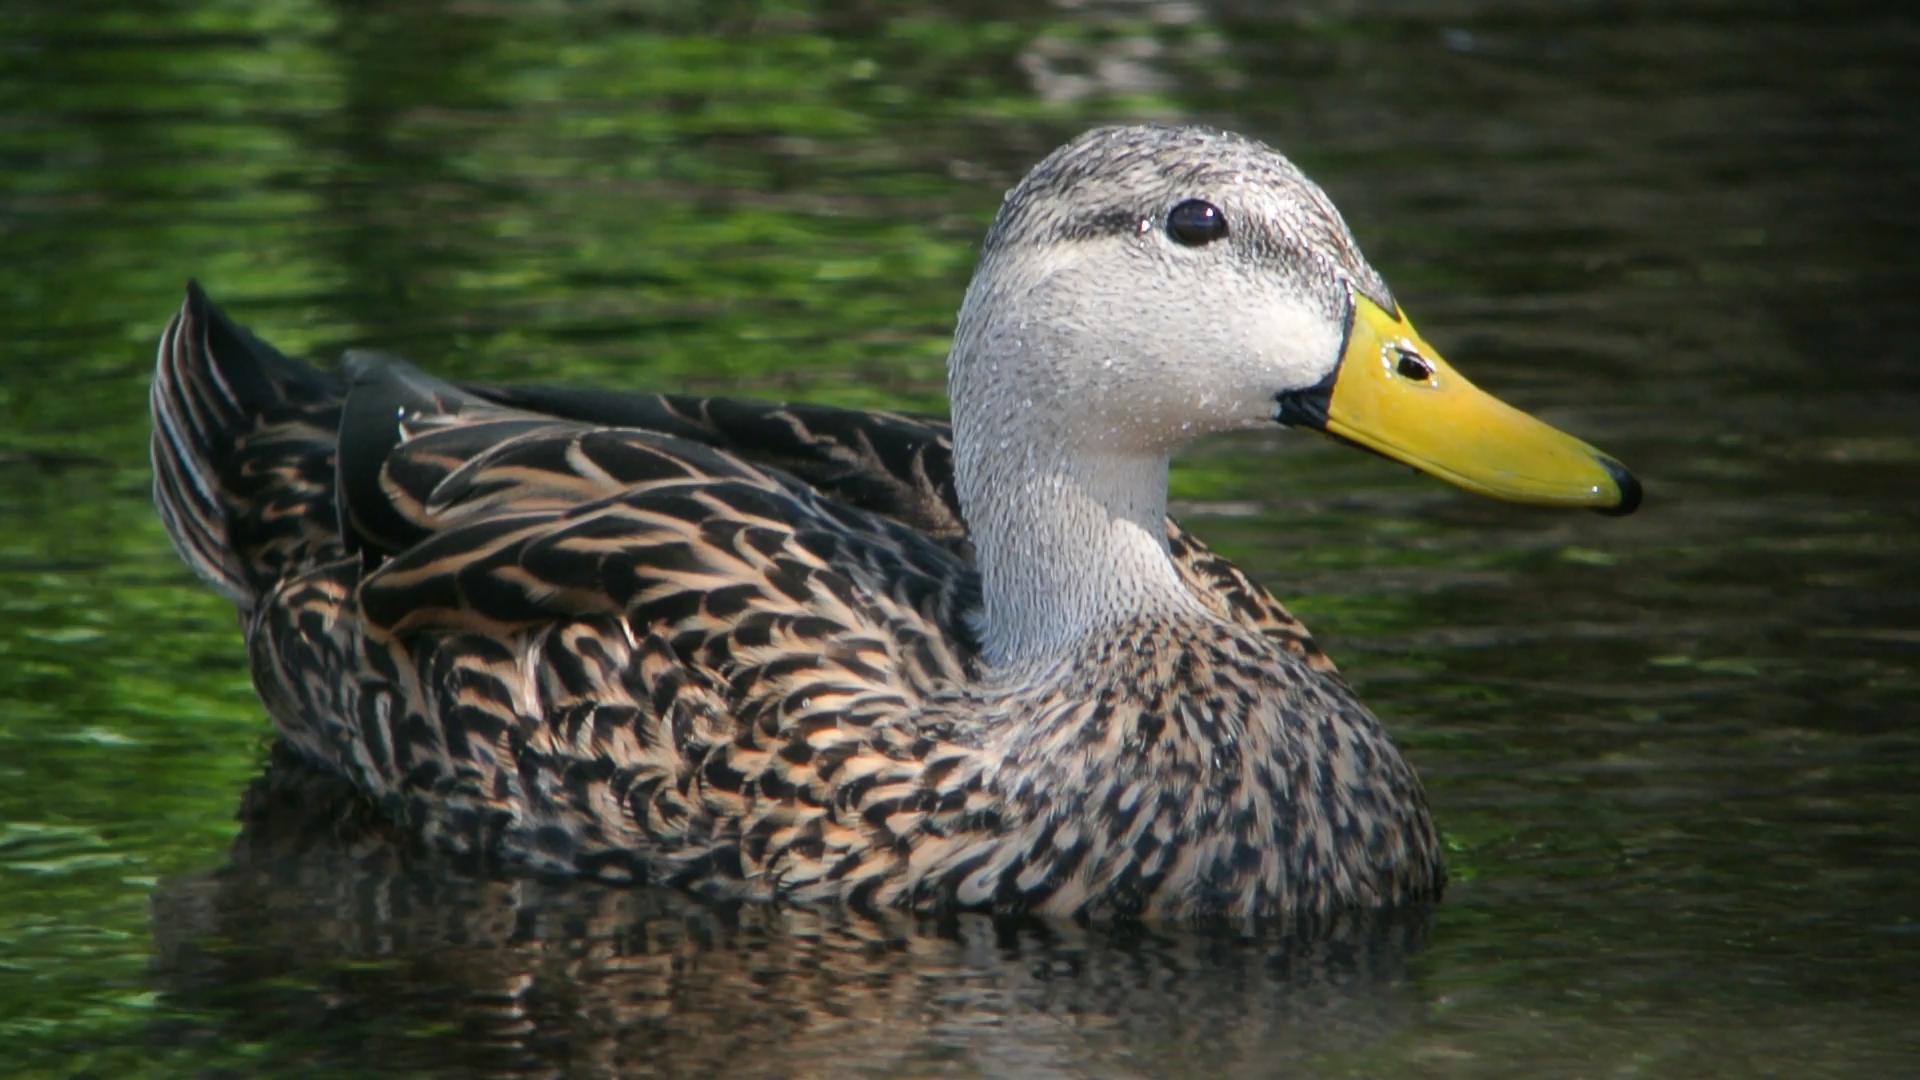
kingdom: Animalia
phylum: Chordata
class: Aves
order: Anseriformes
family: Anatidae
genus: Anas
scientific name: Anas fulvigula
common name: Mottled duck
